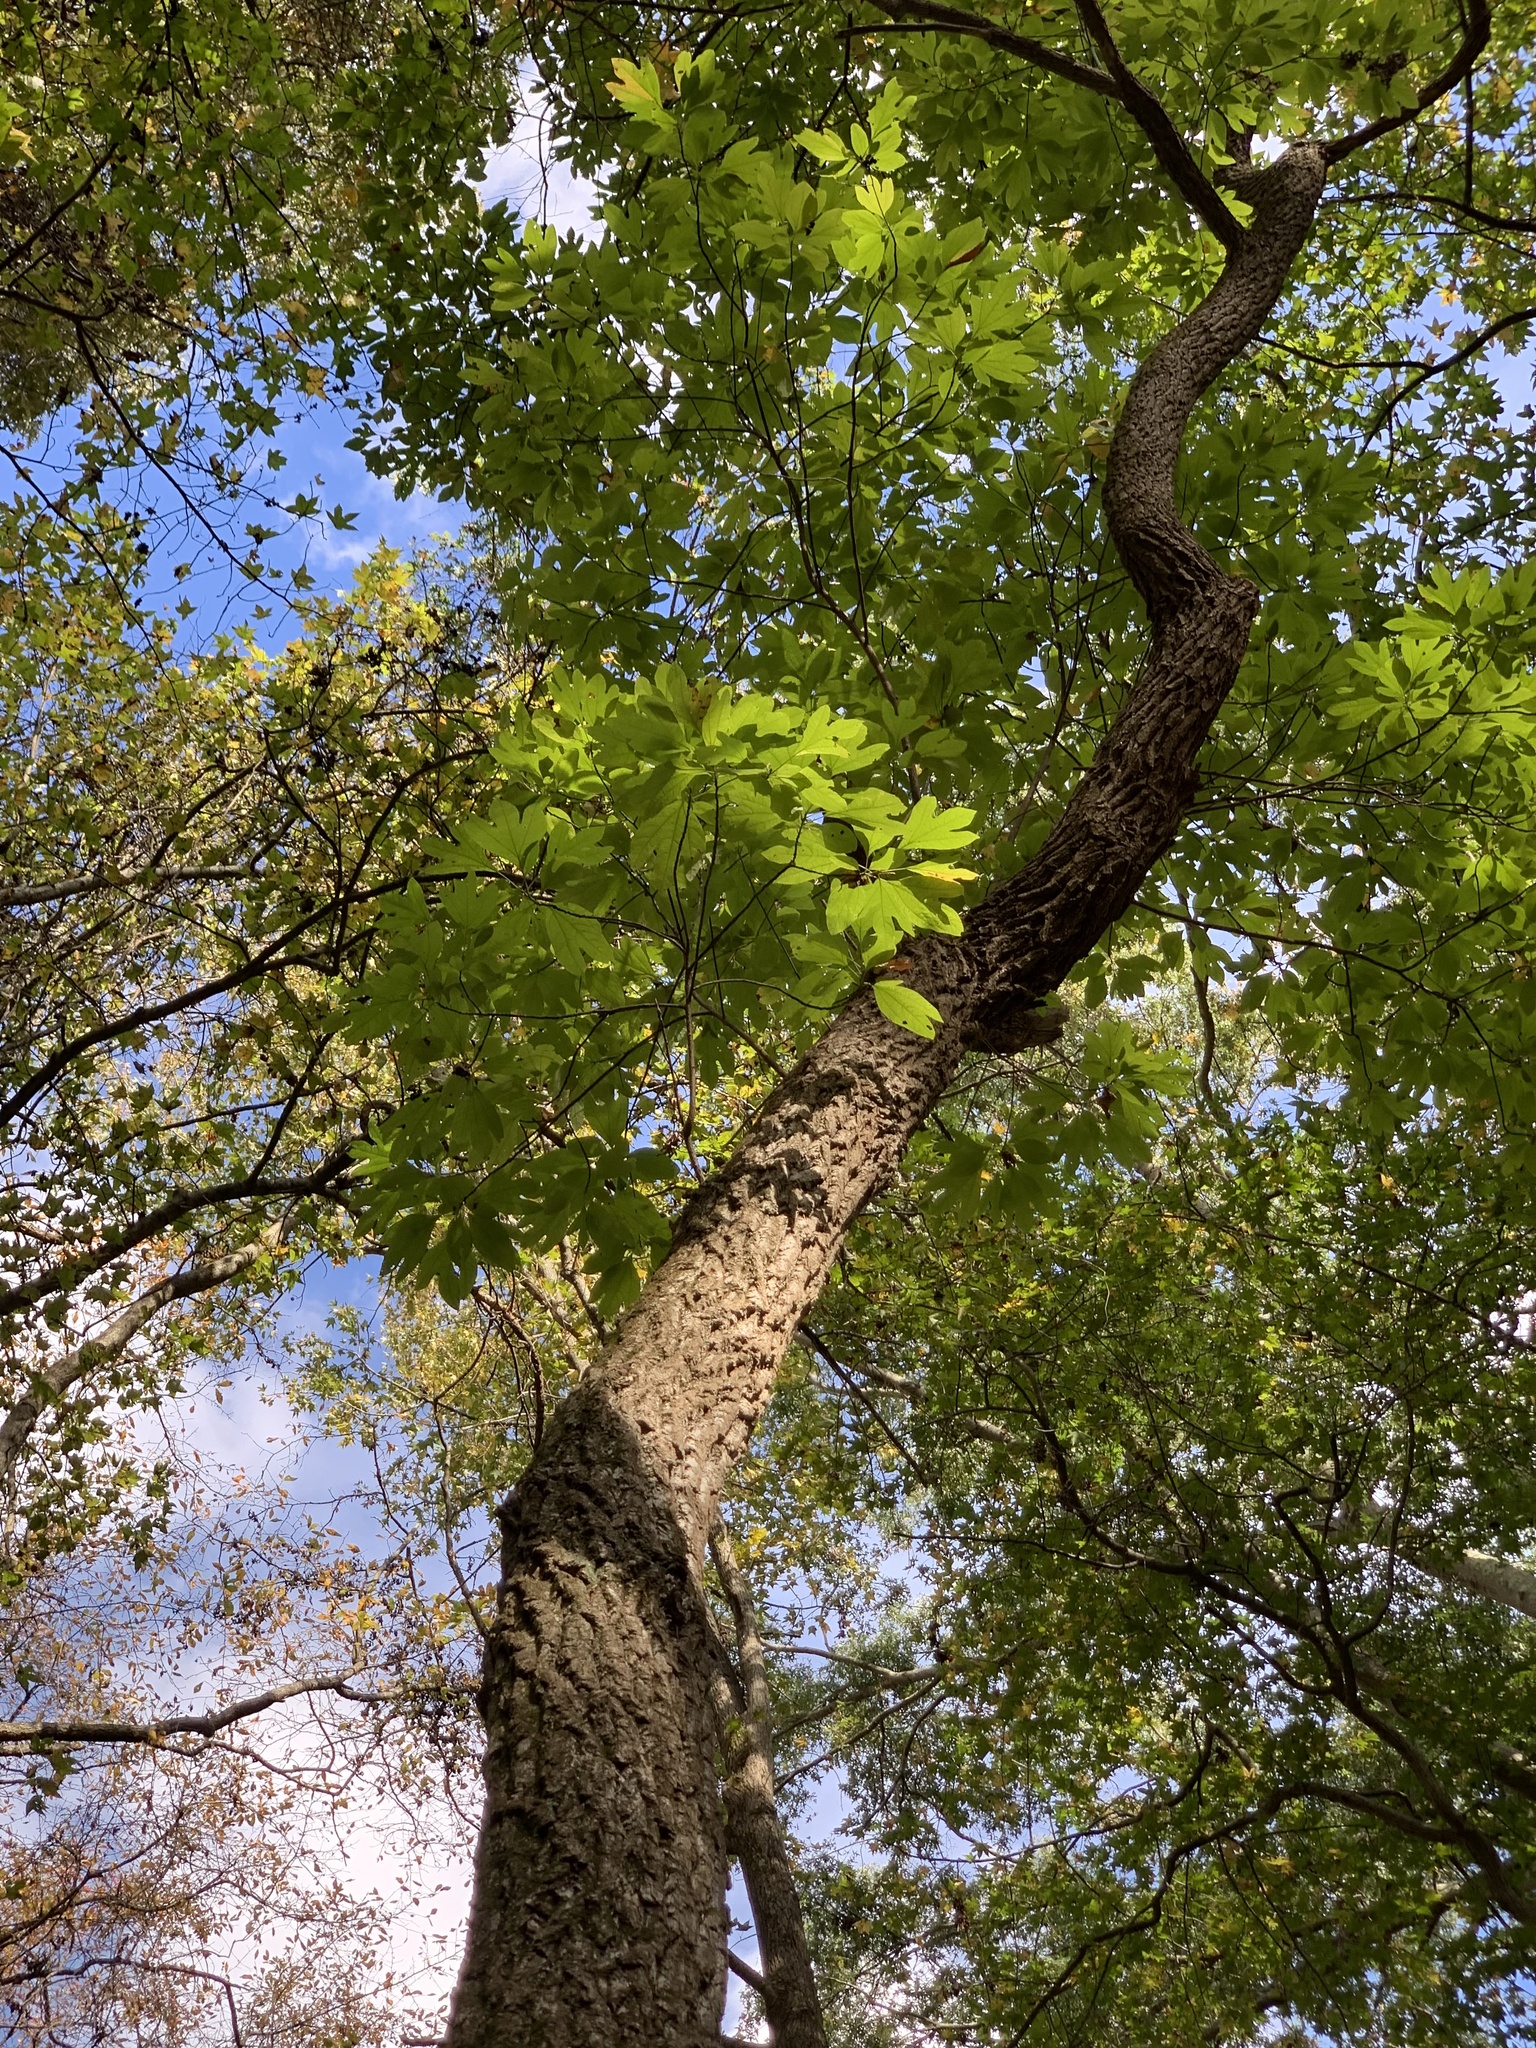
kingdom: Plantae
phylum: Tracheophyta
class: Magnoliopsida
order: Laurales
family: Lauraceae
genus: Sassafras
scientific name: Sassafras albidum
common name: Sassafras
